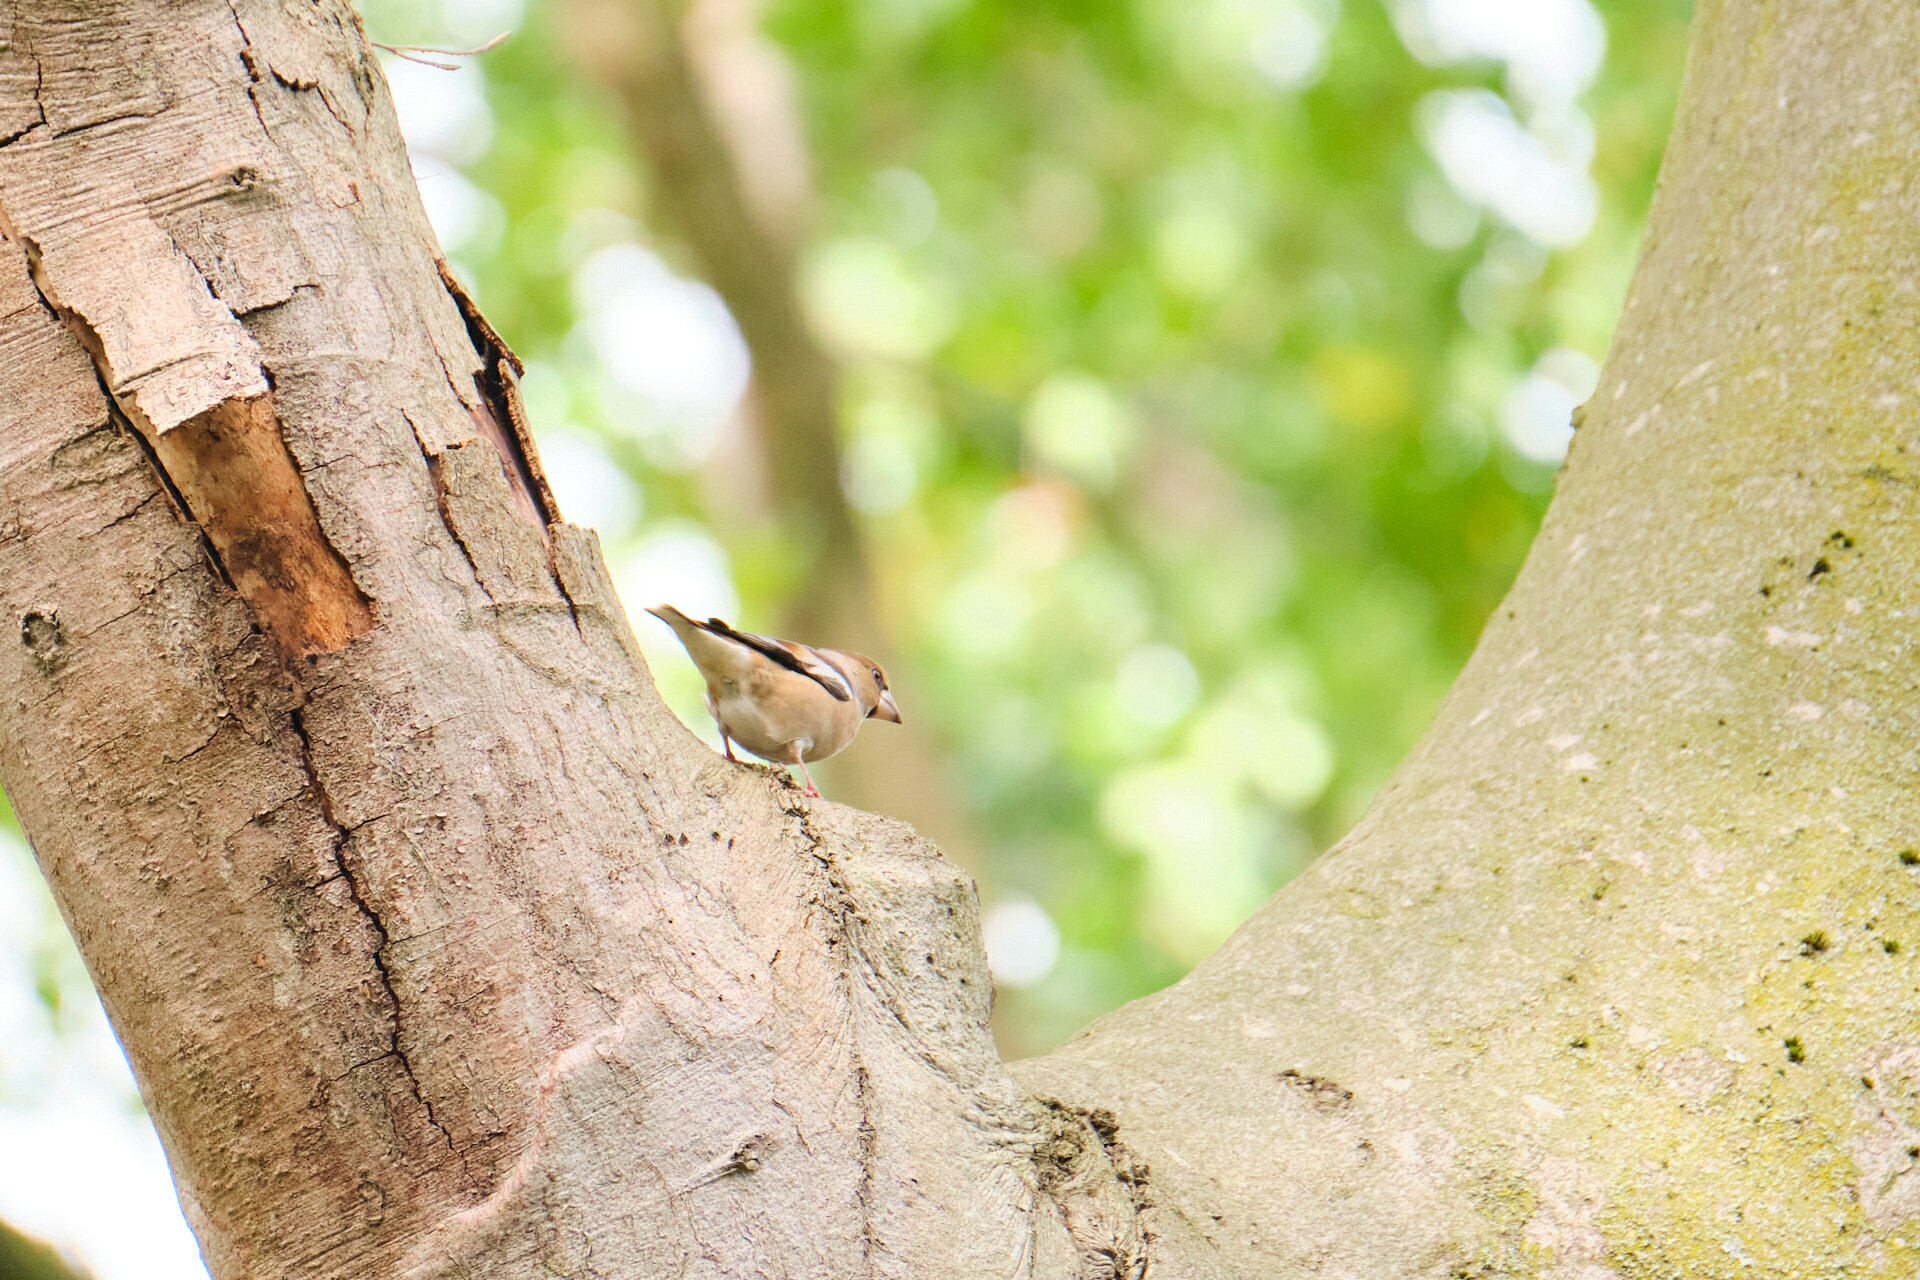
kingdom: Animalia
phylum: Chordata
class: Aves
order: Passeriformes
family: Fringillidae
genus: Coccothraustes
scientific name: Coccothraustes coccothraustes
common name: Hawfinch
